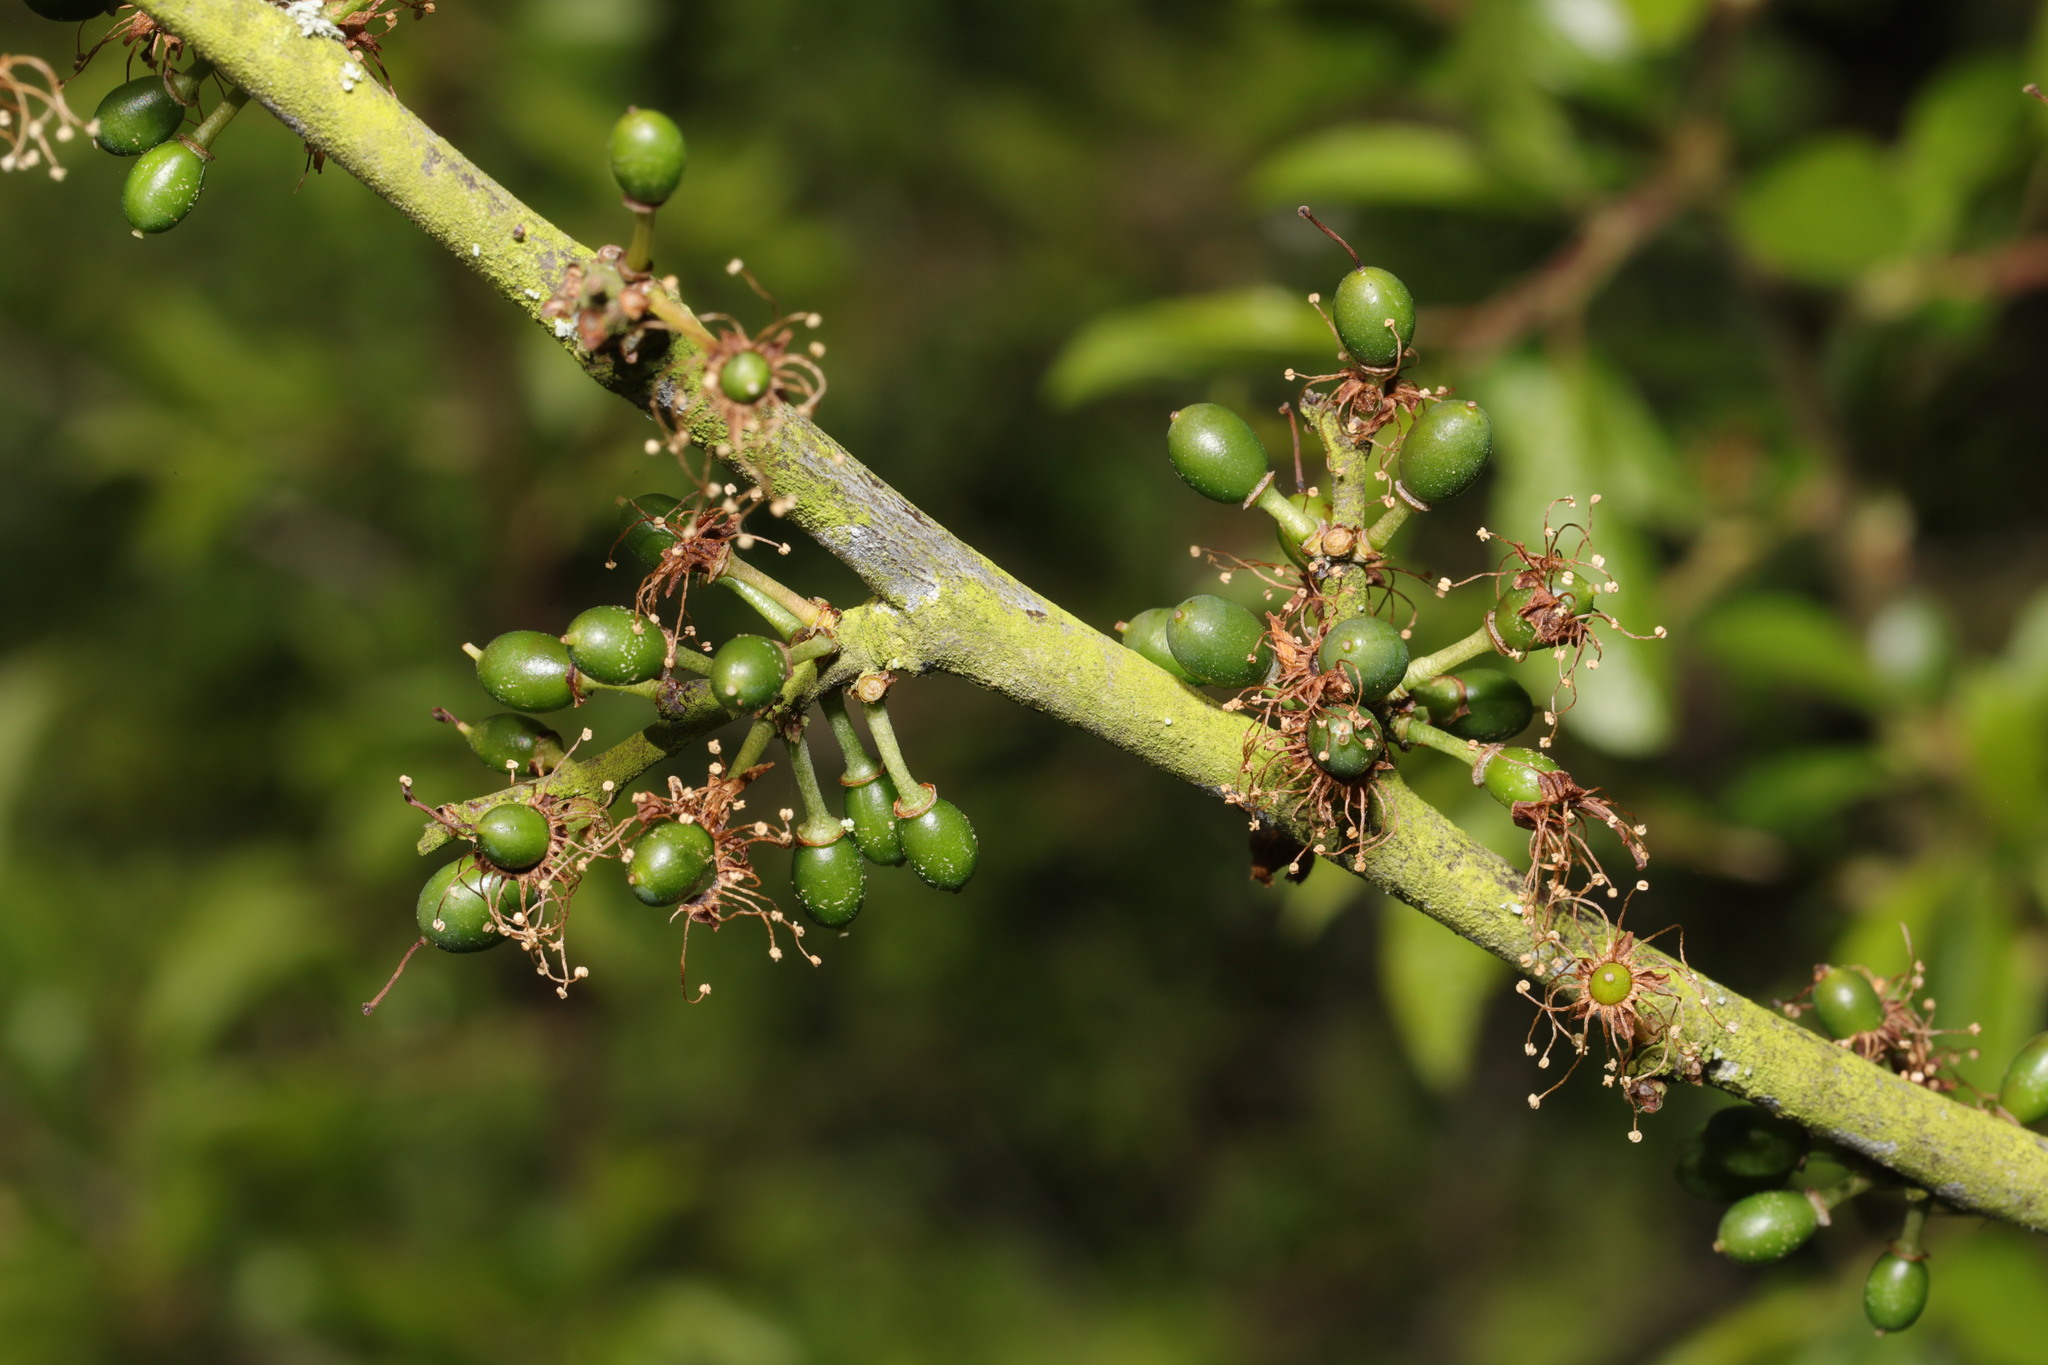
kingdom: Plantae
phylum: Tracheophyta
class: Magnoliopsida
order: Rosales
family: Rosaceae
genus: Prunus
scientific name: Prunus spinosa
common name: Blackthorn
